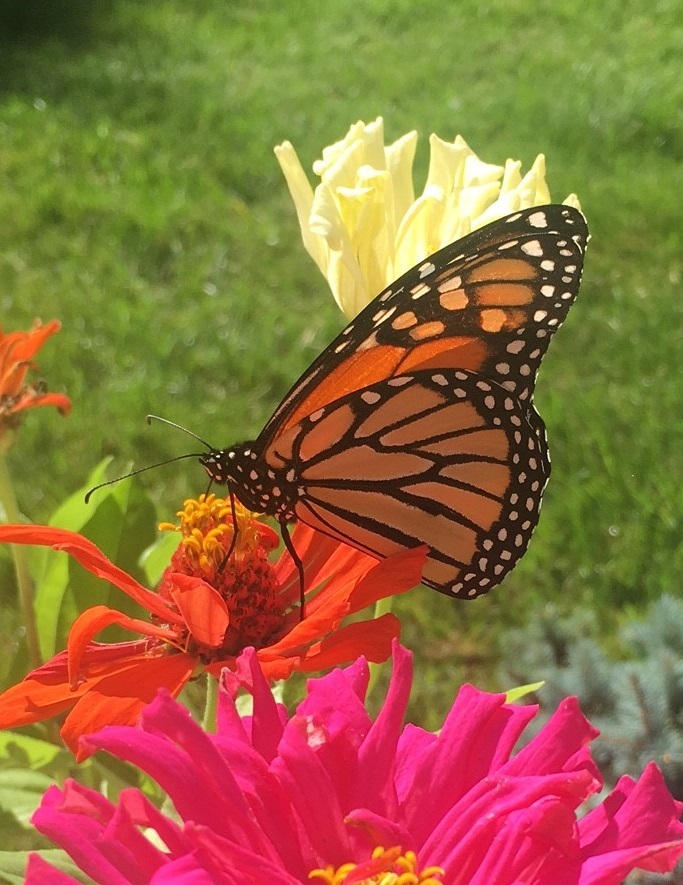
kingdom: Animalia
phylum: Arthropoda
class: Insecta
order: Lepidoptera
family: Nymphalidae
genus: Danaus
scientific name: Danaus plexippus
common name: Monarch
